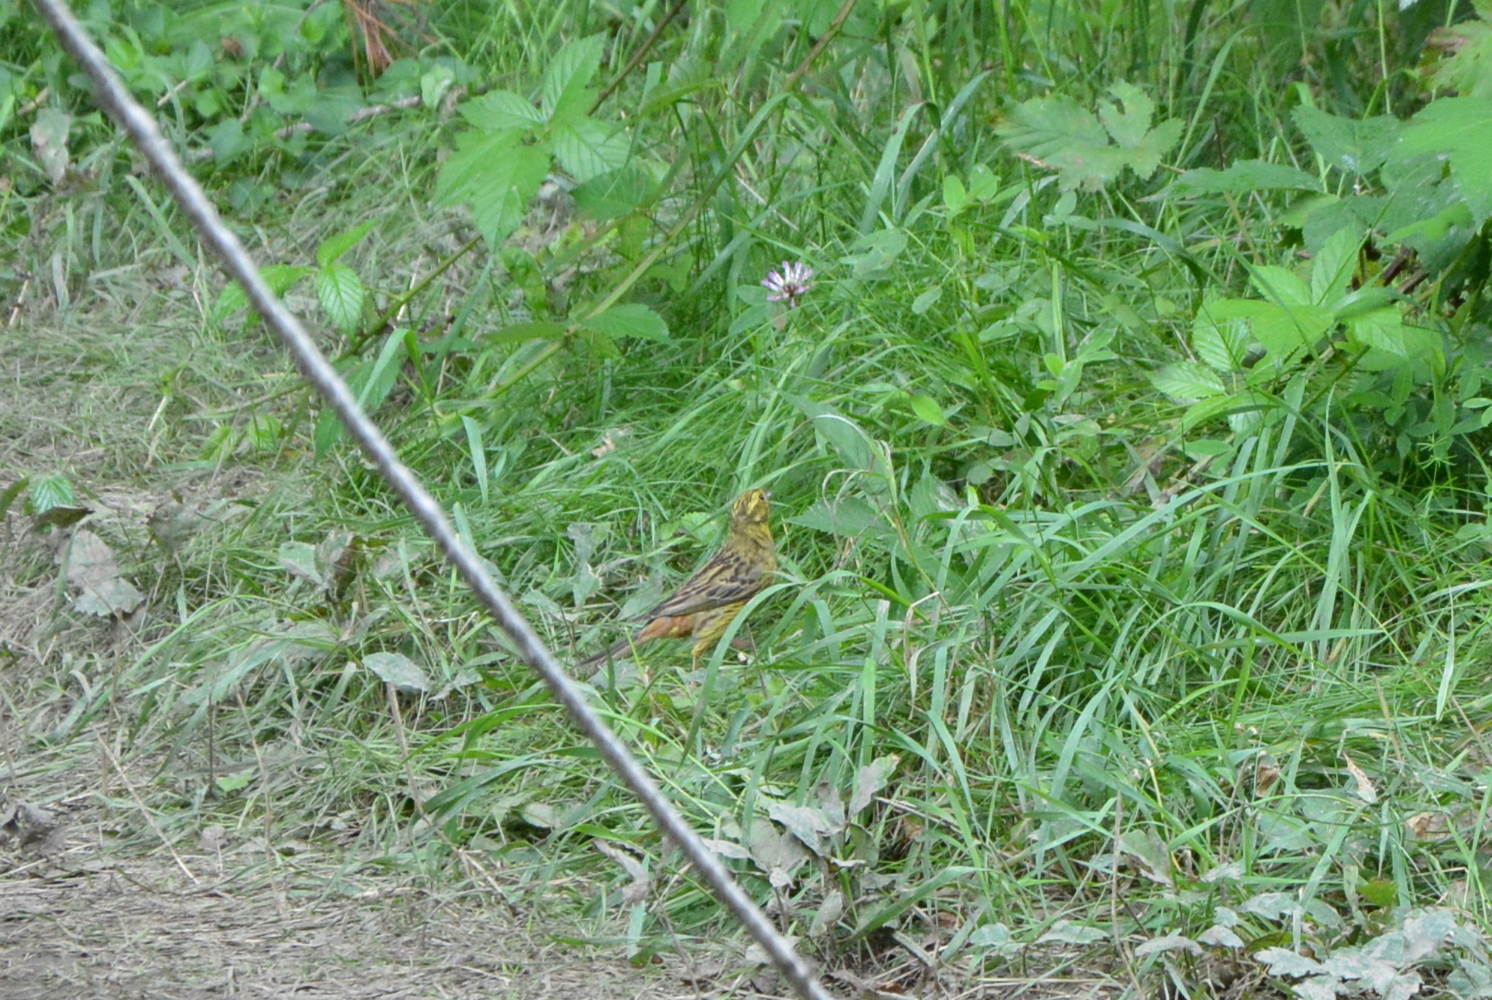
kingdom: Animalia
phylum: Chordata
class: Aves
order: Passeriformes
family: Emberizidae
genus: Emberiza
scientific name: Emberiza citrinella
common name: Yellowhammer
